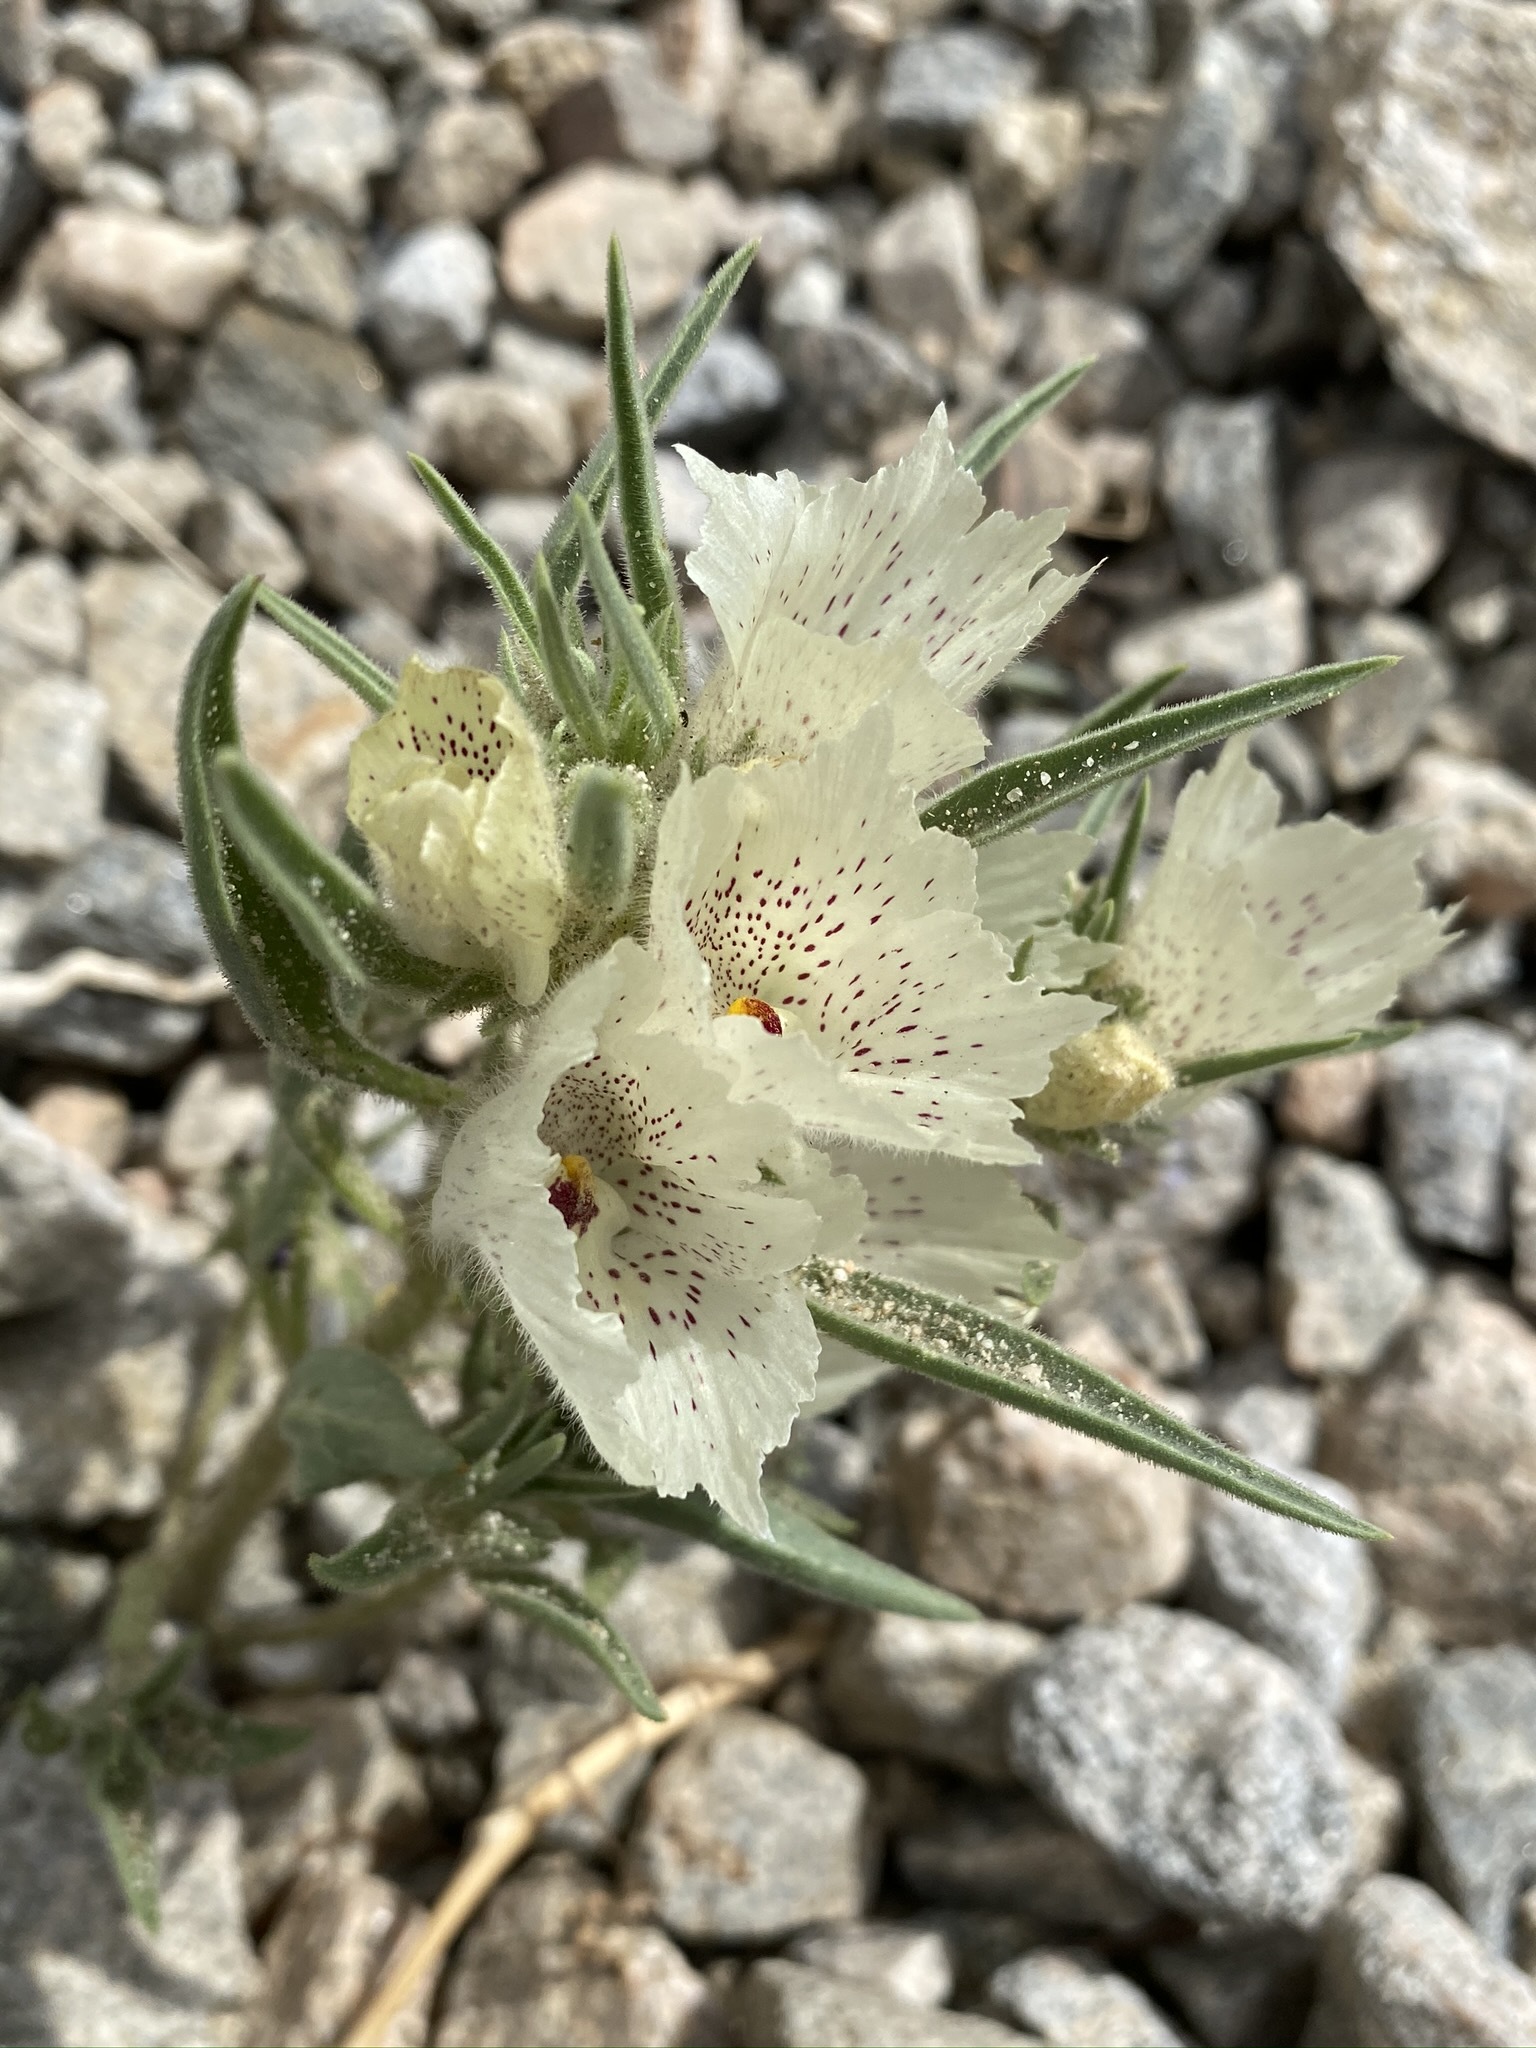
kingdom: Plantae
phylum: Tracheophyta
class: Magnoliopsida
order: Lamiales
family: Plantaginaceae
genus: Mohavea
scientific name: Mohavea confertiflora
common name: Ghost flower
